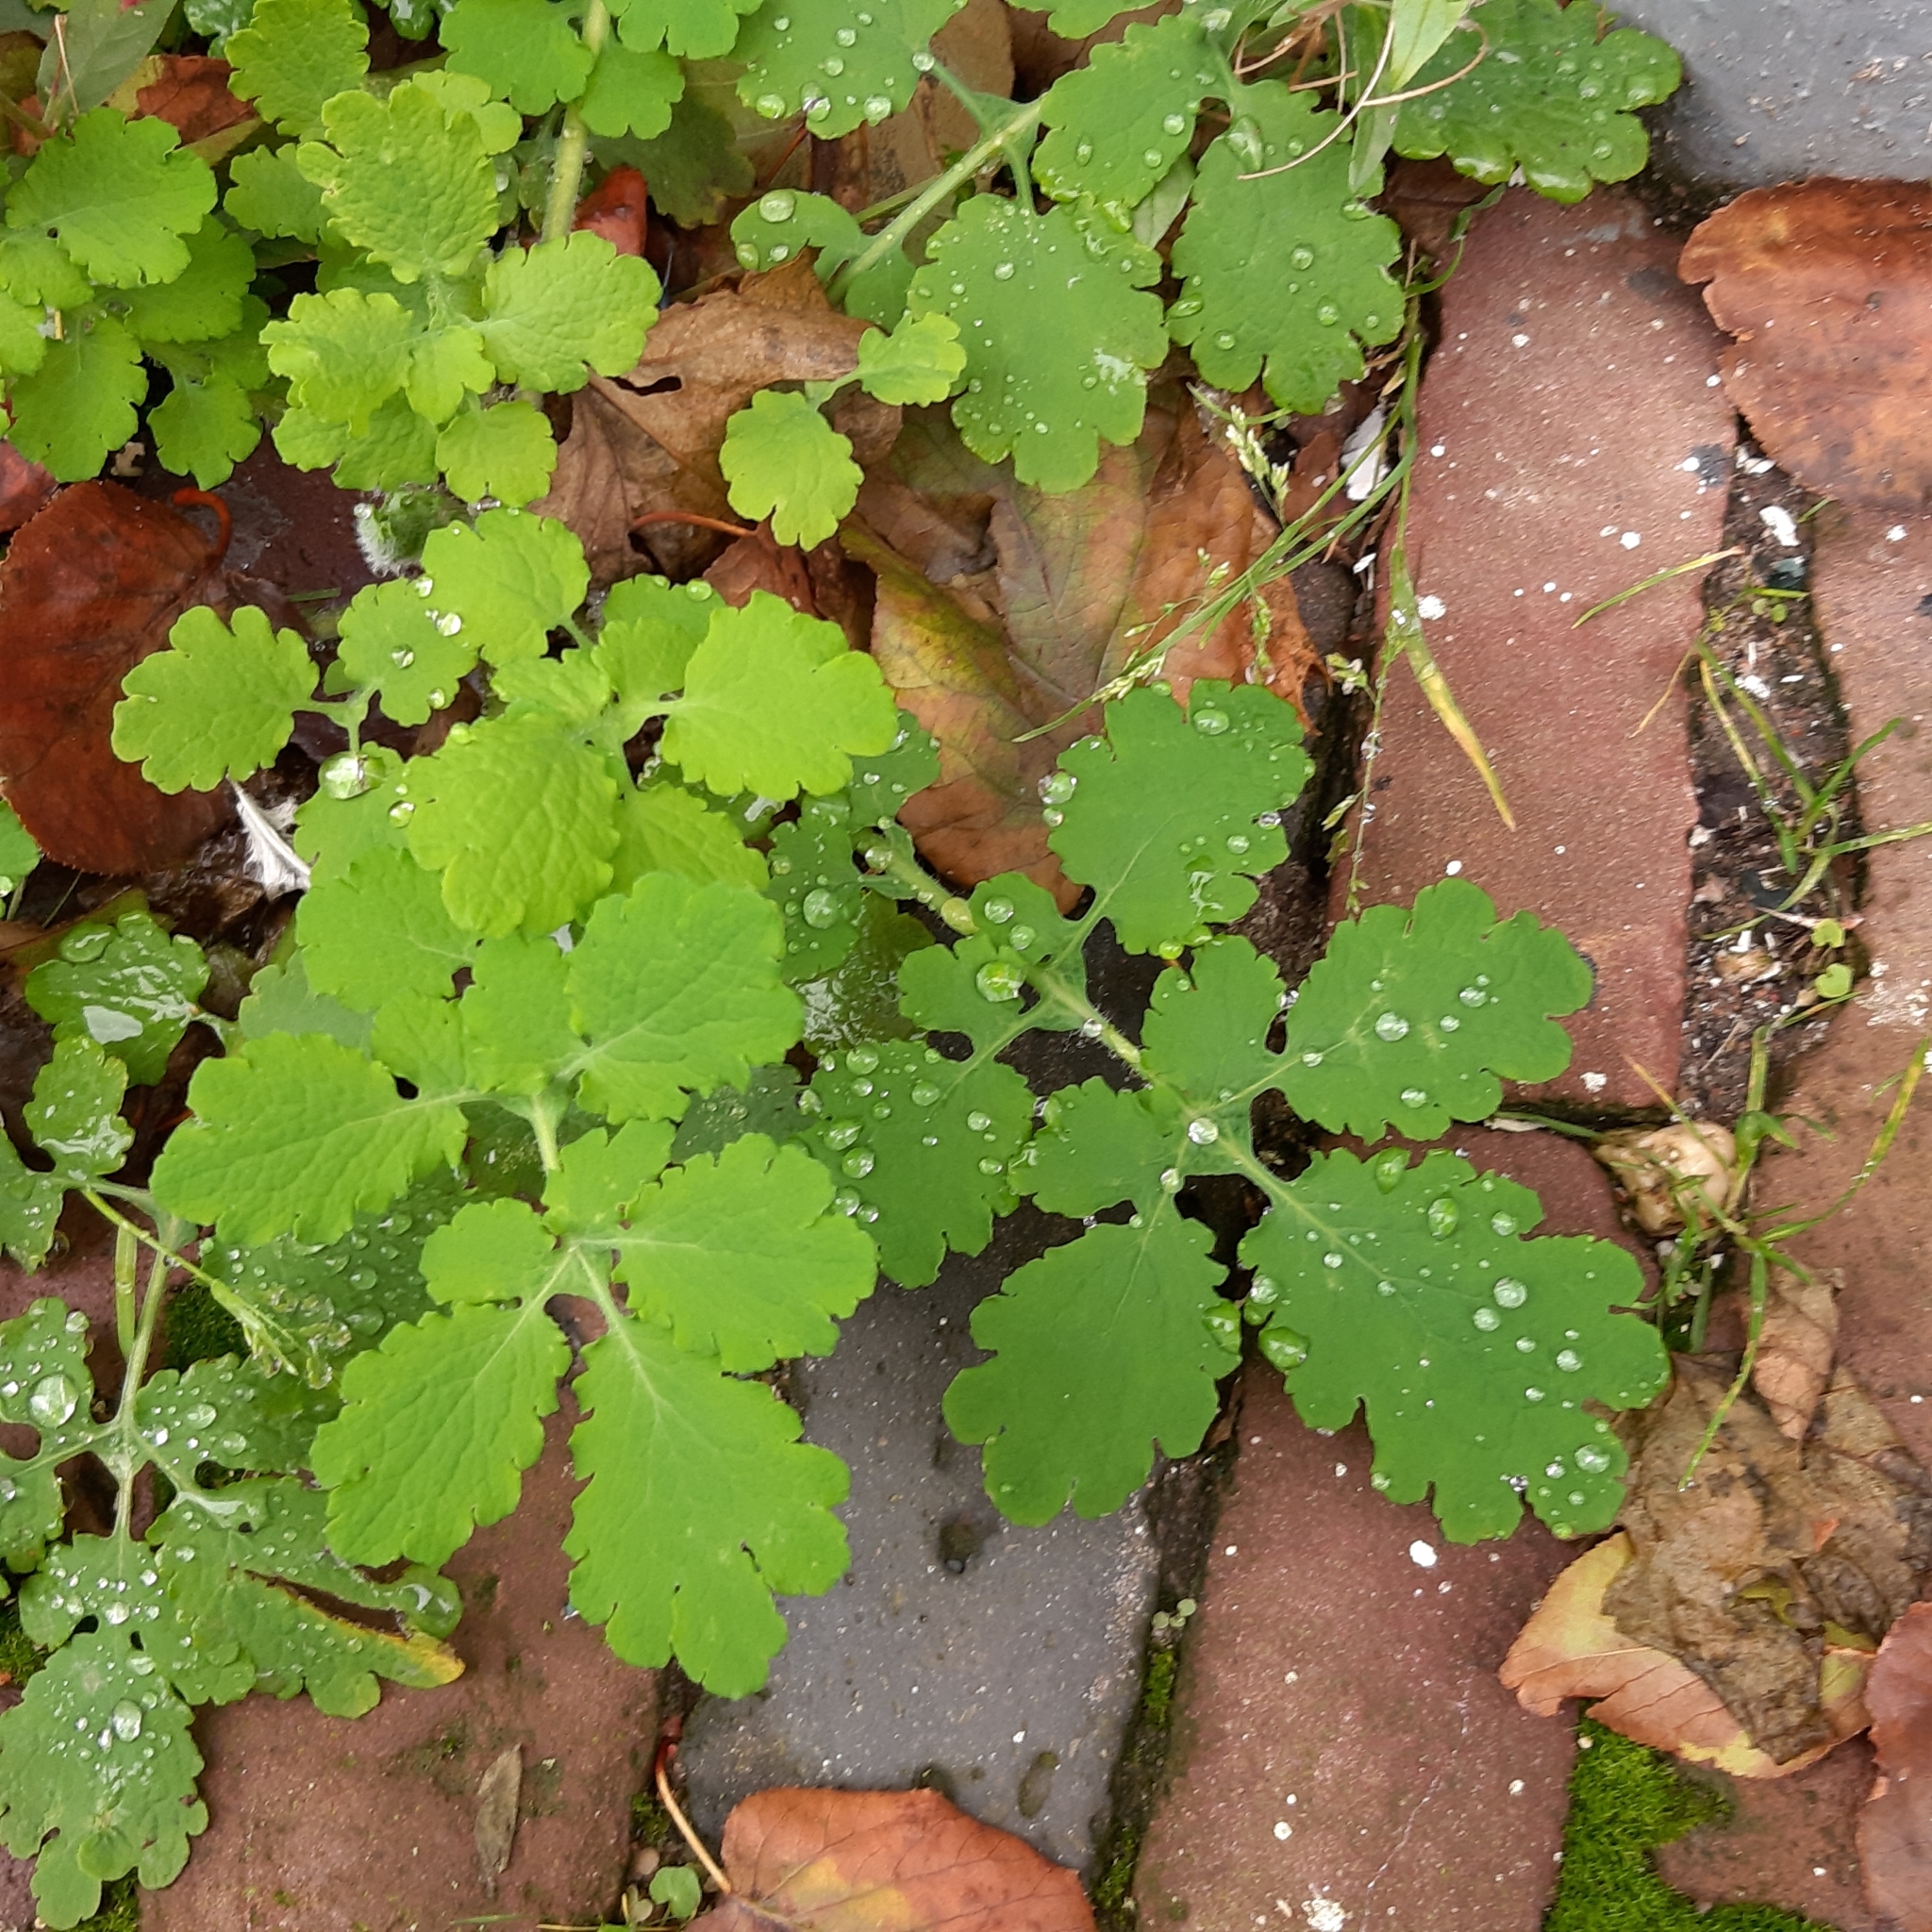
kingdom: Plantae
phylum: Tracheophyta
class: Magnoliopsida
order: Ranunculales
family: Papaveraceae
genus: Chelidonium
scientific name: Chelidonium majus
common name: Greater celandine
